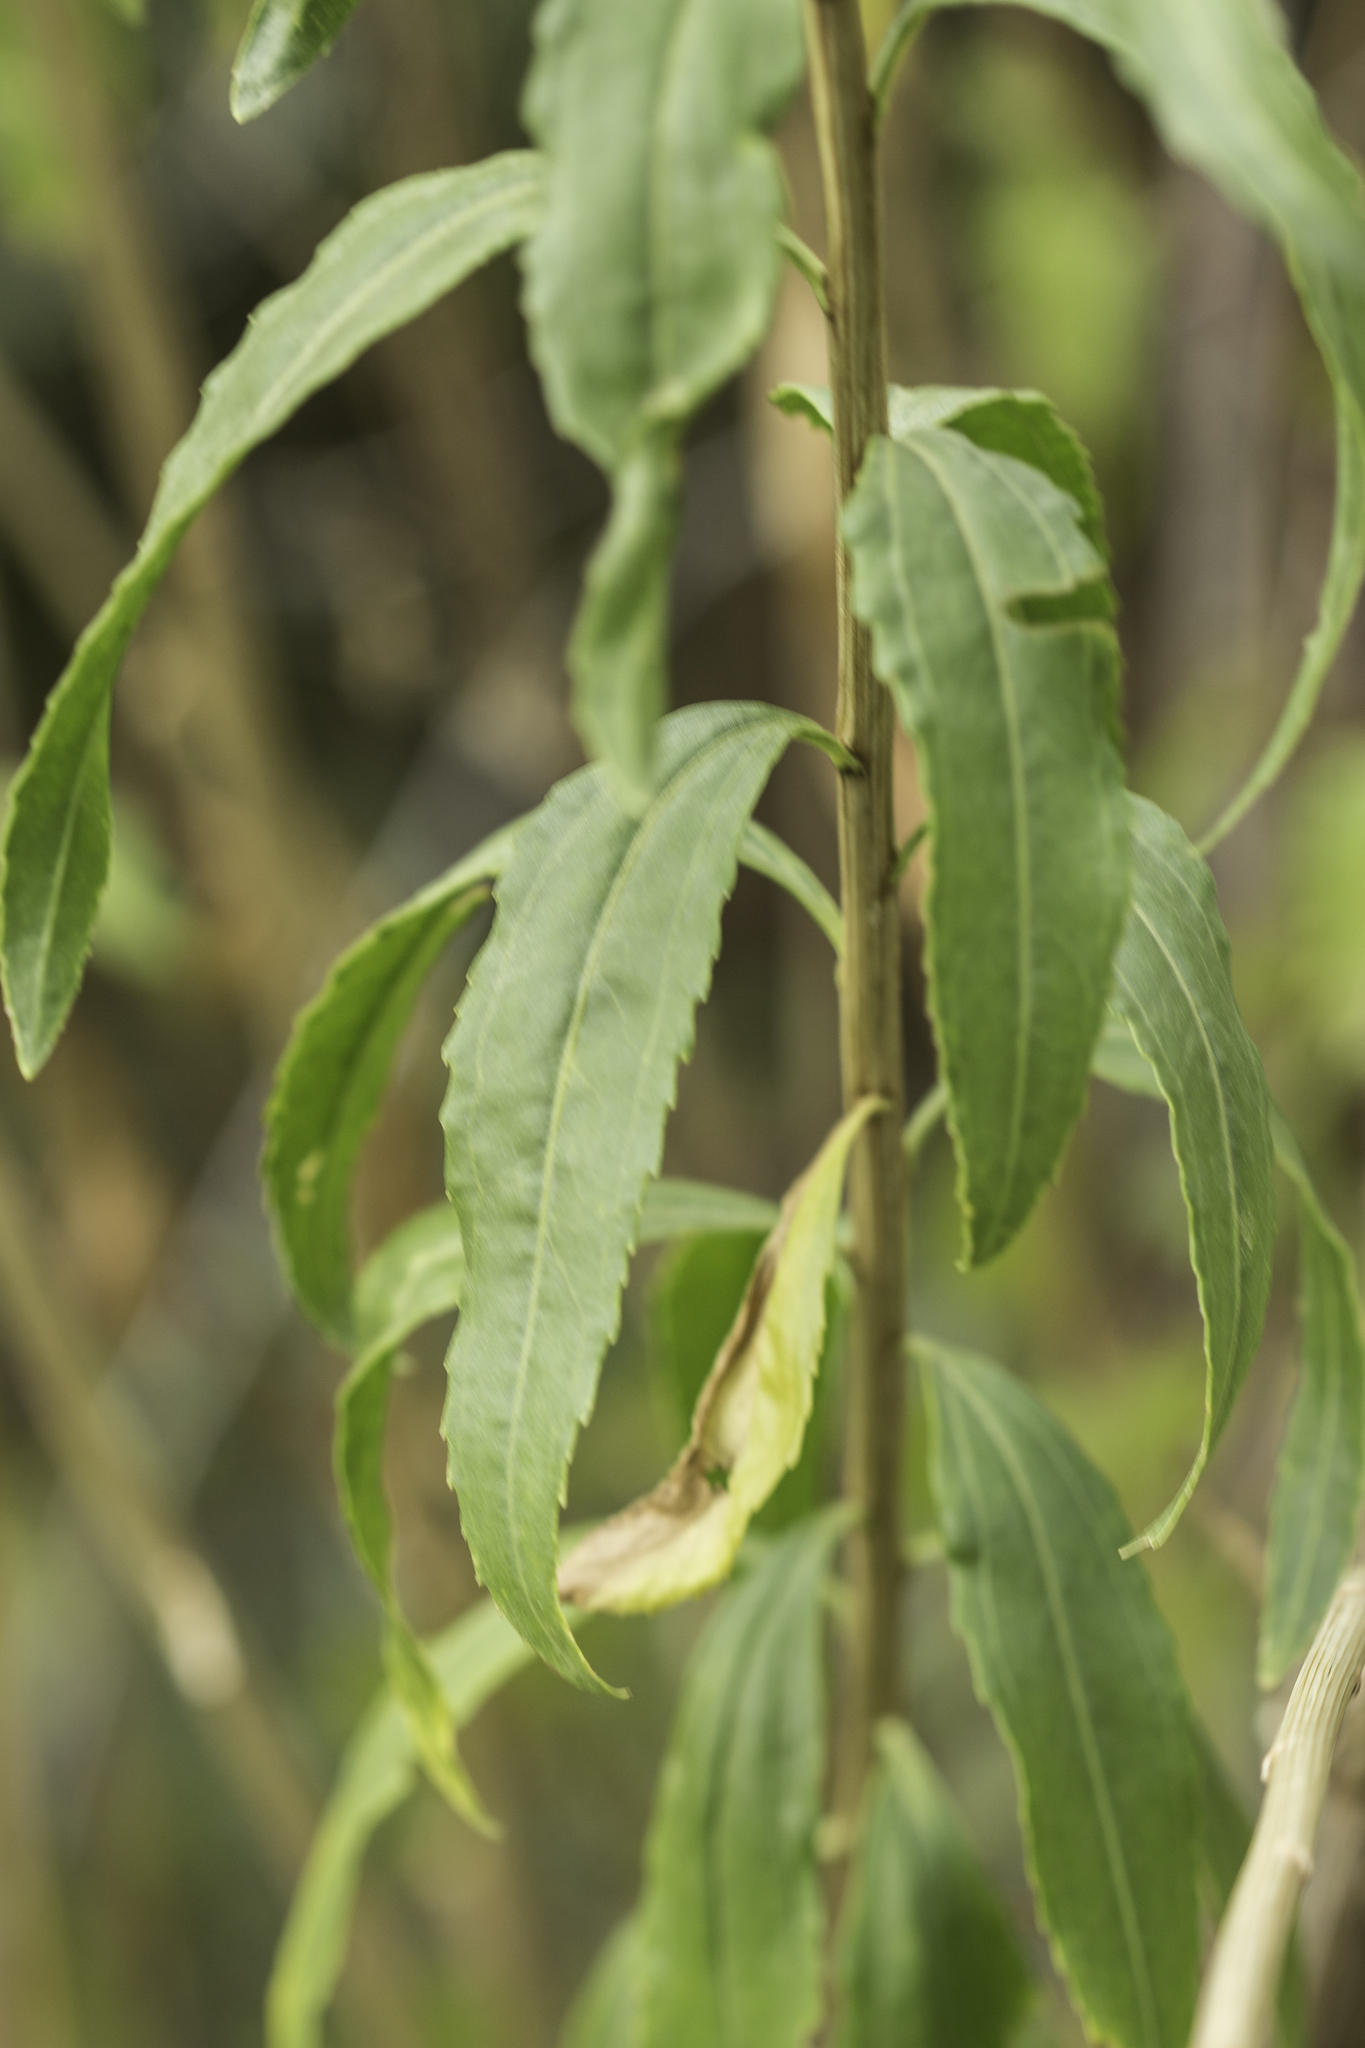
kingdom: Plantae
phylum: Tracheophyta
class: Magnoliopsida
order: Asterales
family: Asteraceae
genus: Baccharis
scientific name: Baccharis salicifolia
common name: Sticky baccharis
